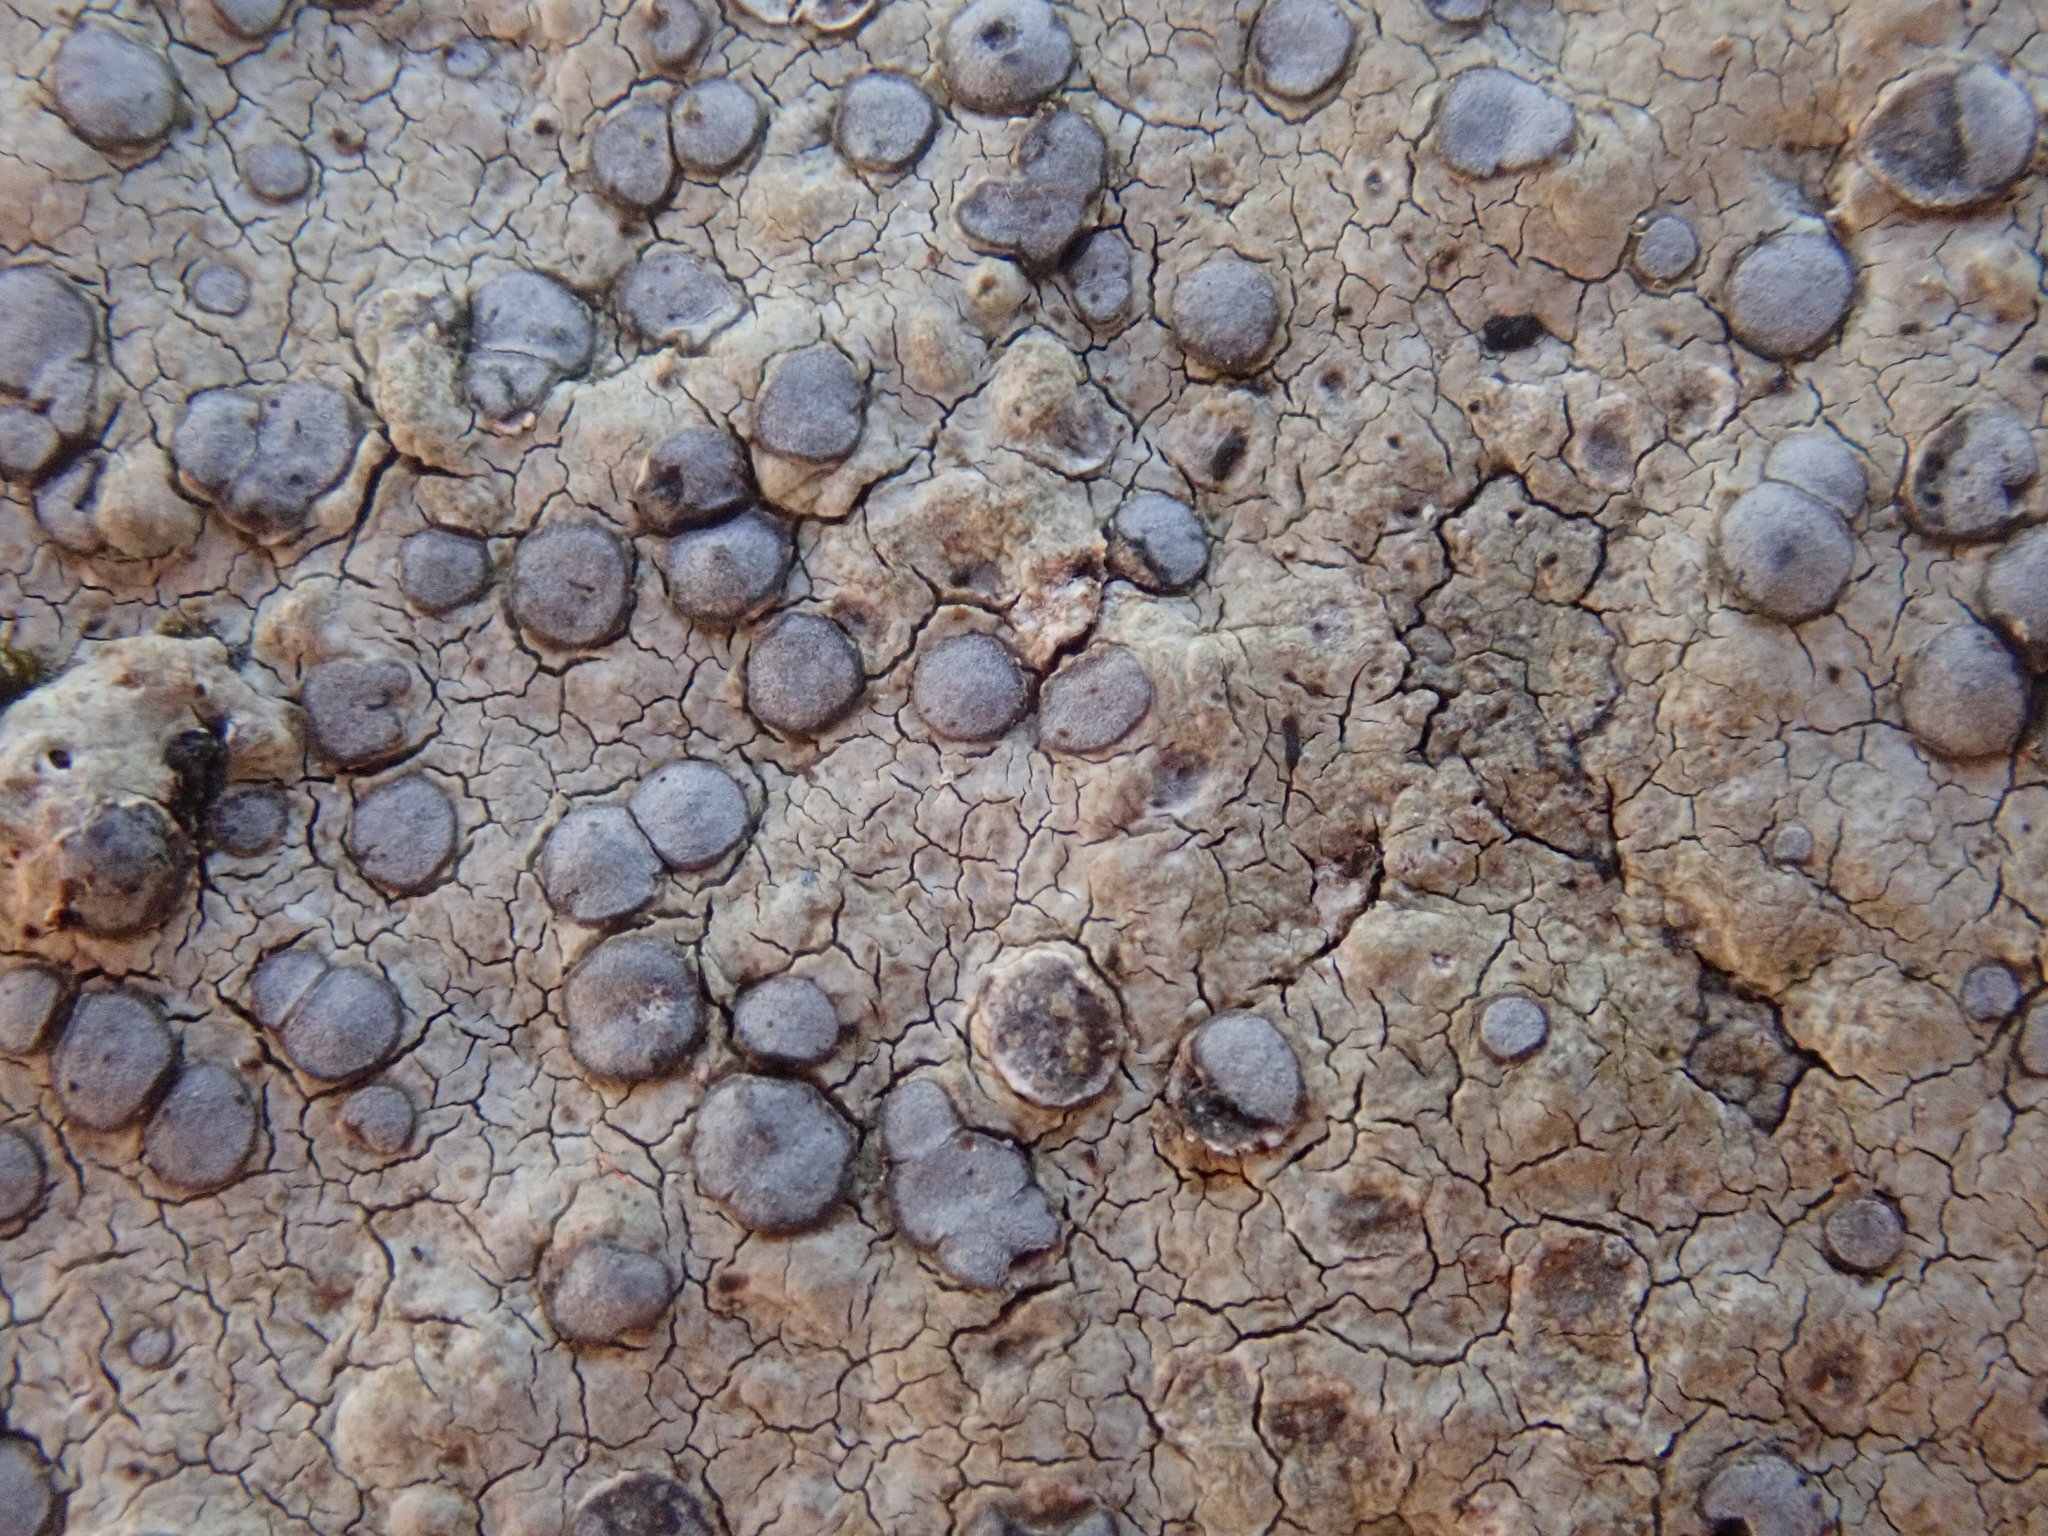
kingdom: Fungi
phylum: Ascomycota
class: Lecanoromycetes
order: Lecideales
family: Lecideaceae
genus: Porpidia
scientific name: Porpidia albocaerulescens
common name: Smokey-eyed boulder lichen
